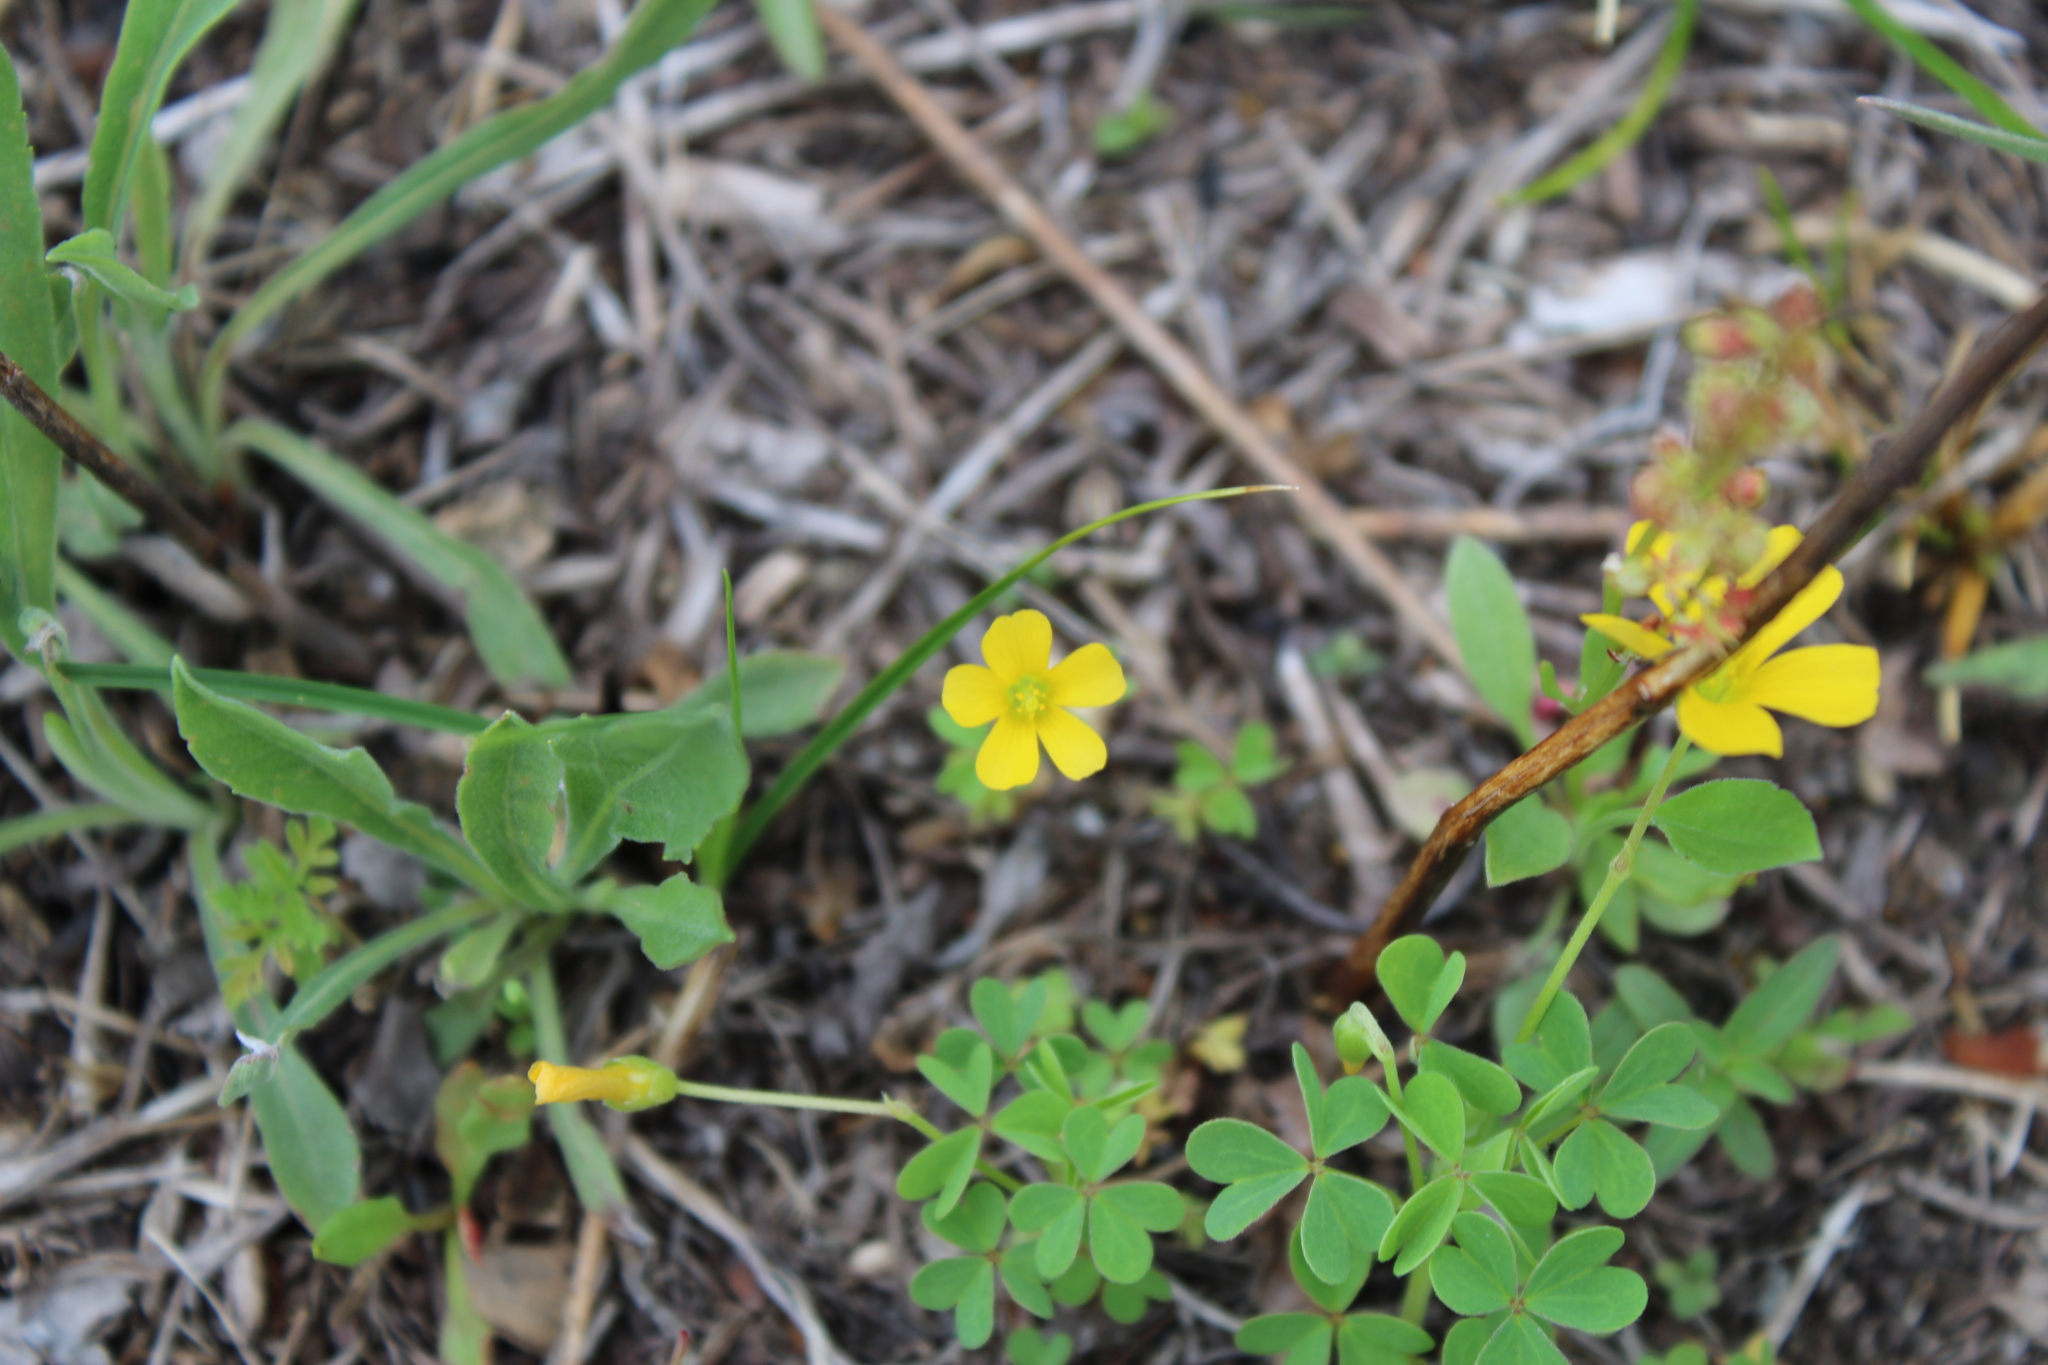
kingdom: Plantae
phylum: Tracheophyta
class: Magnoliopsida
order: Oxalidales
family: Oxalidaceae
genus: Oxalis
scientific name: Oxalis dillenii
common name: Sussex yellow-sorrel
